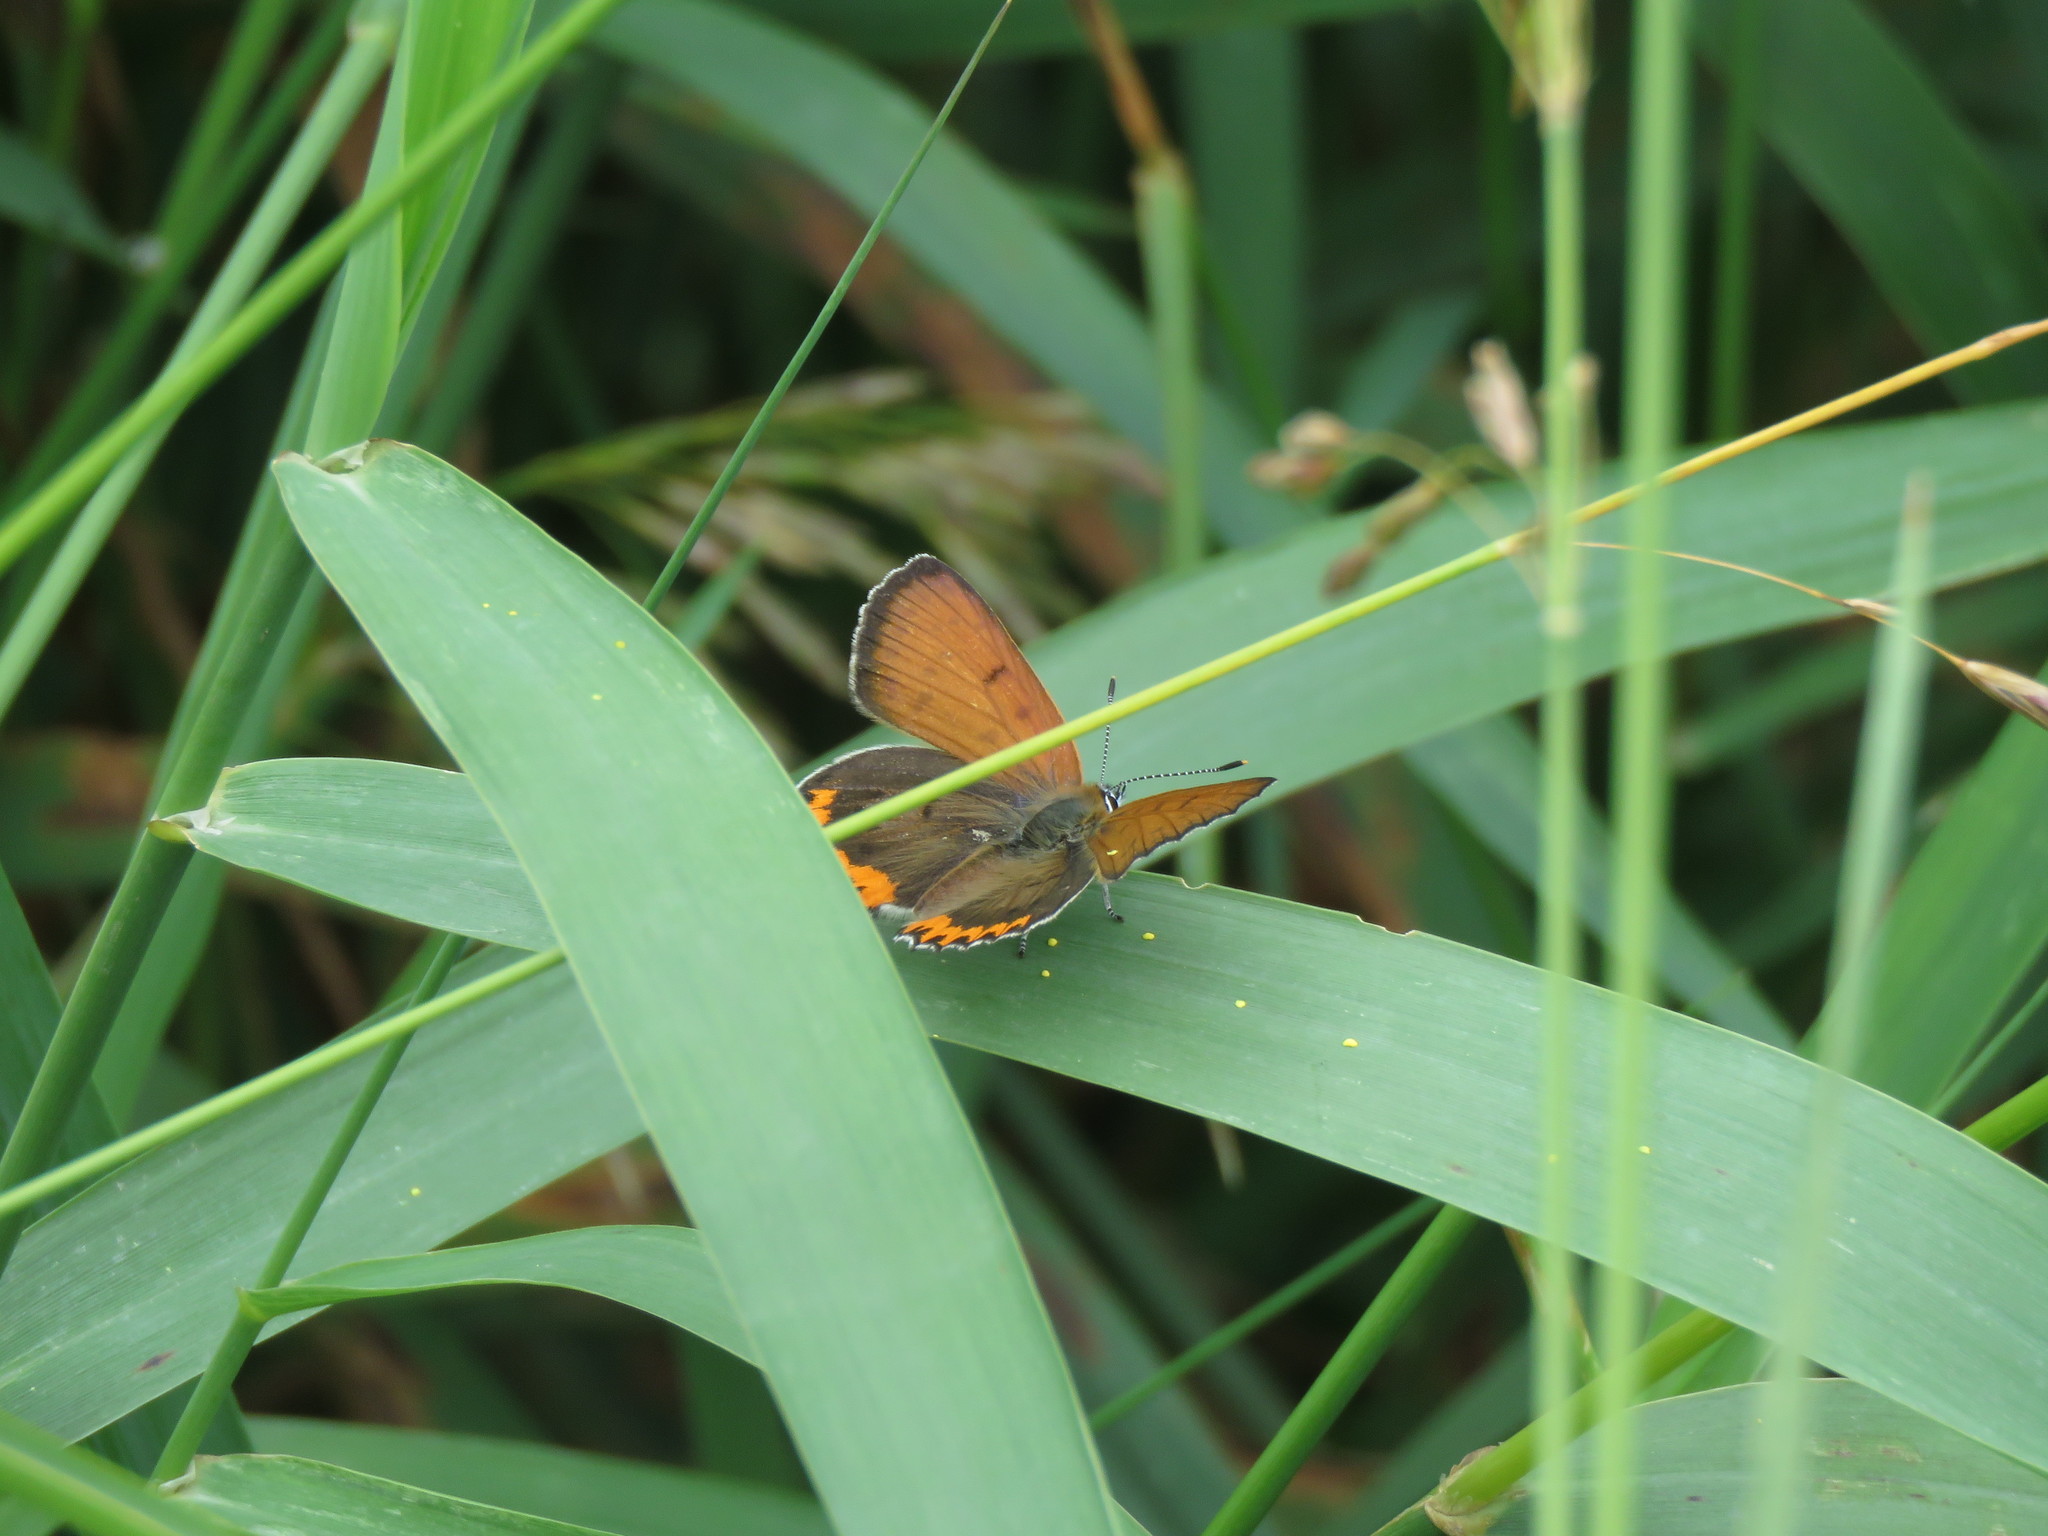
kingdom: Animalia
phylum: Arthropoda
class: Insecta
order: Lepidoptera
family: Lycaenidae
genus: Tharsalea
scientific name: Tharsalea hyllus
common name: Bronze copper
